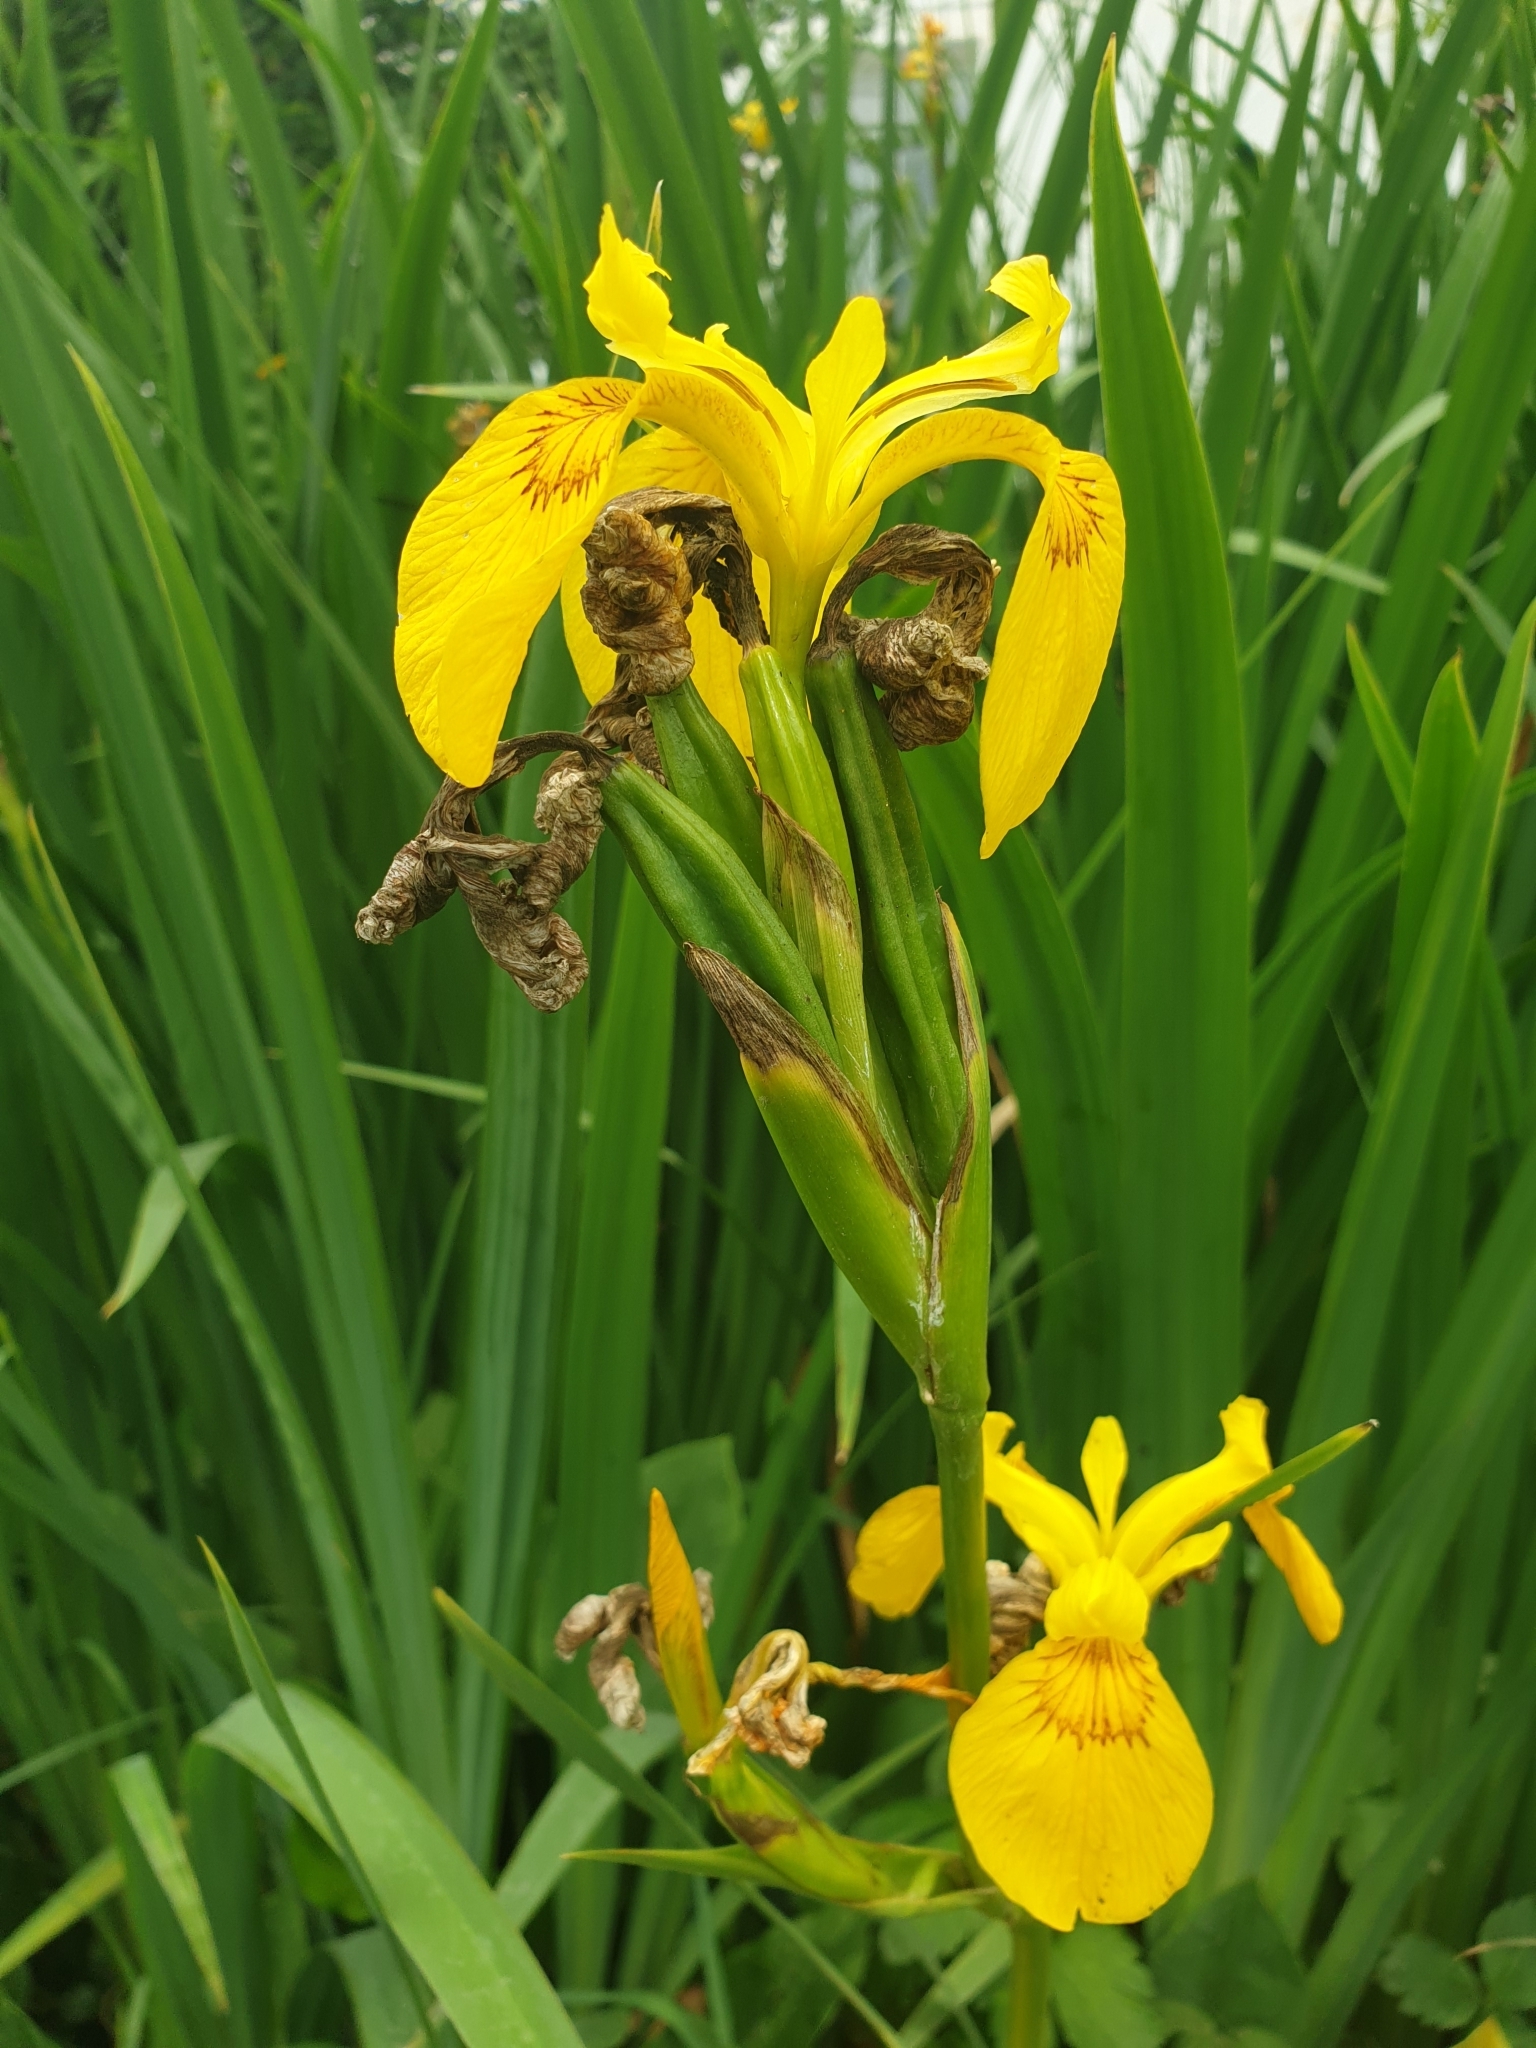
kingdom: Plantae
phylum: Tracheophyta
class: Liliopsida
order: Asparagales
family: Iridaceae
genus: Iris
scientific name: Iris pseudacorus
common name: Yellow flag
